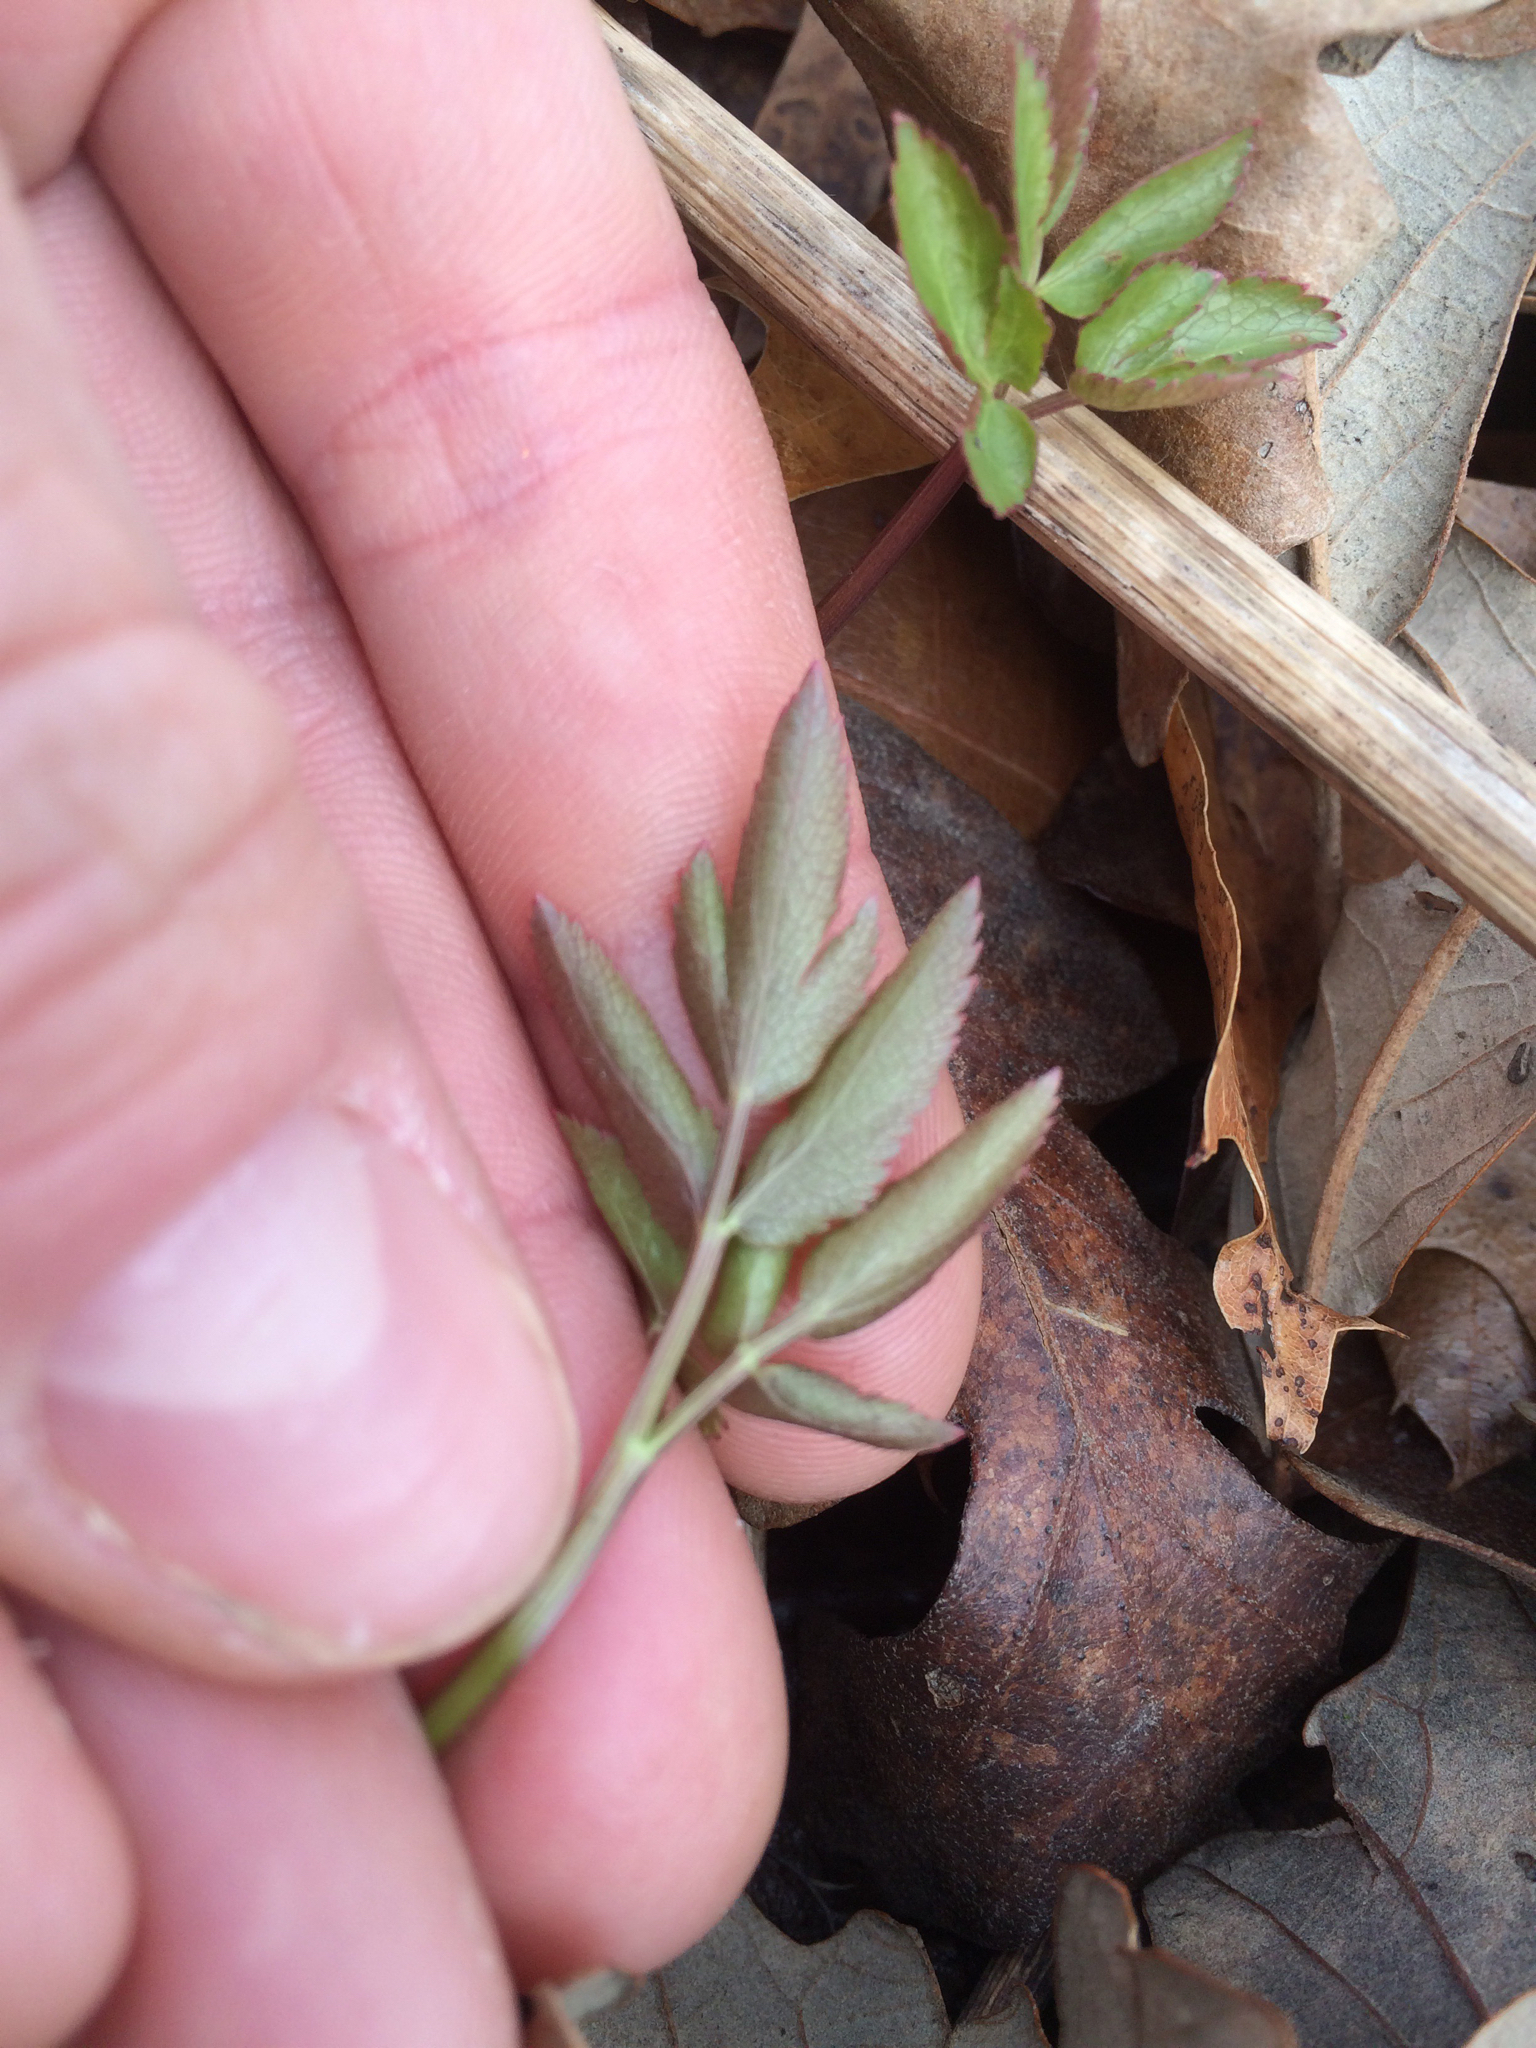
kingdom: Plantae
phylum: Tracheophyta
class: Magnoliopsida
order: Apiales
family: Apiaceae
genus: Zizia
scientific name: Zizia aurea
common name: Golden alexanders
